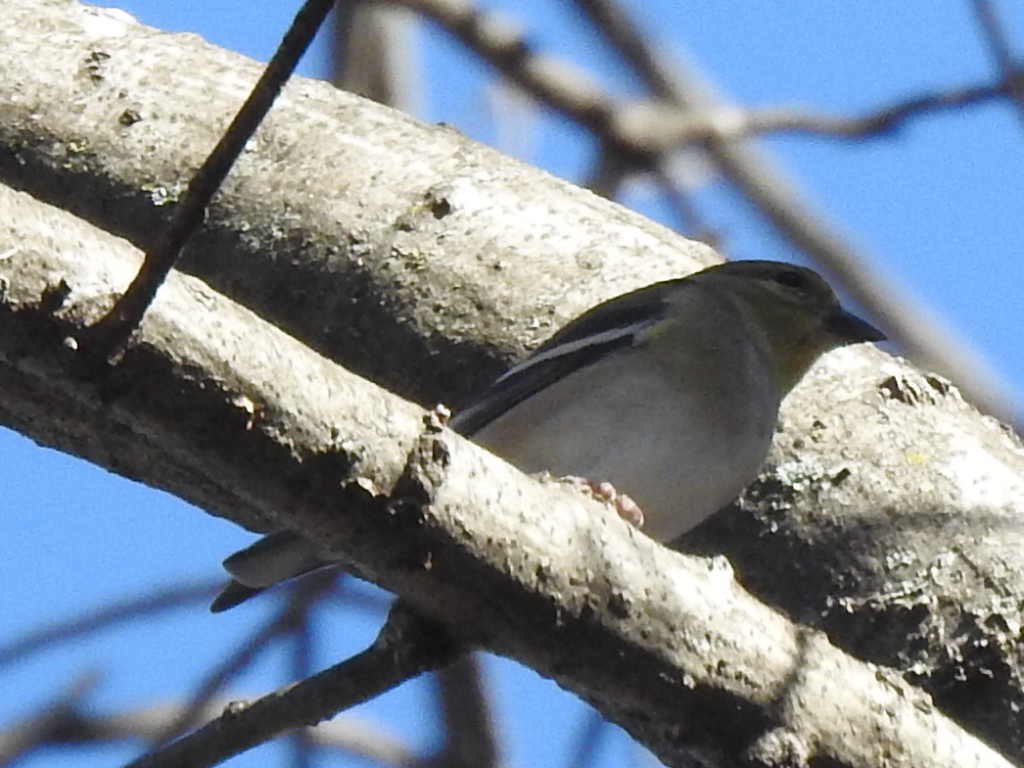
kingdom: Animalia
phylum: Chordata
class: Aves
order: Passeriformes
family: Fringillidae
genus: Spinus
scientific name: Spinus tristis
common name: American goldfinch
